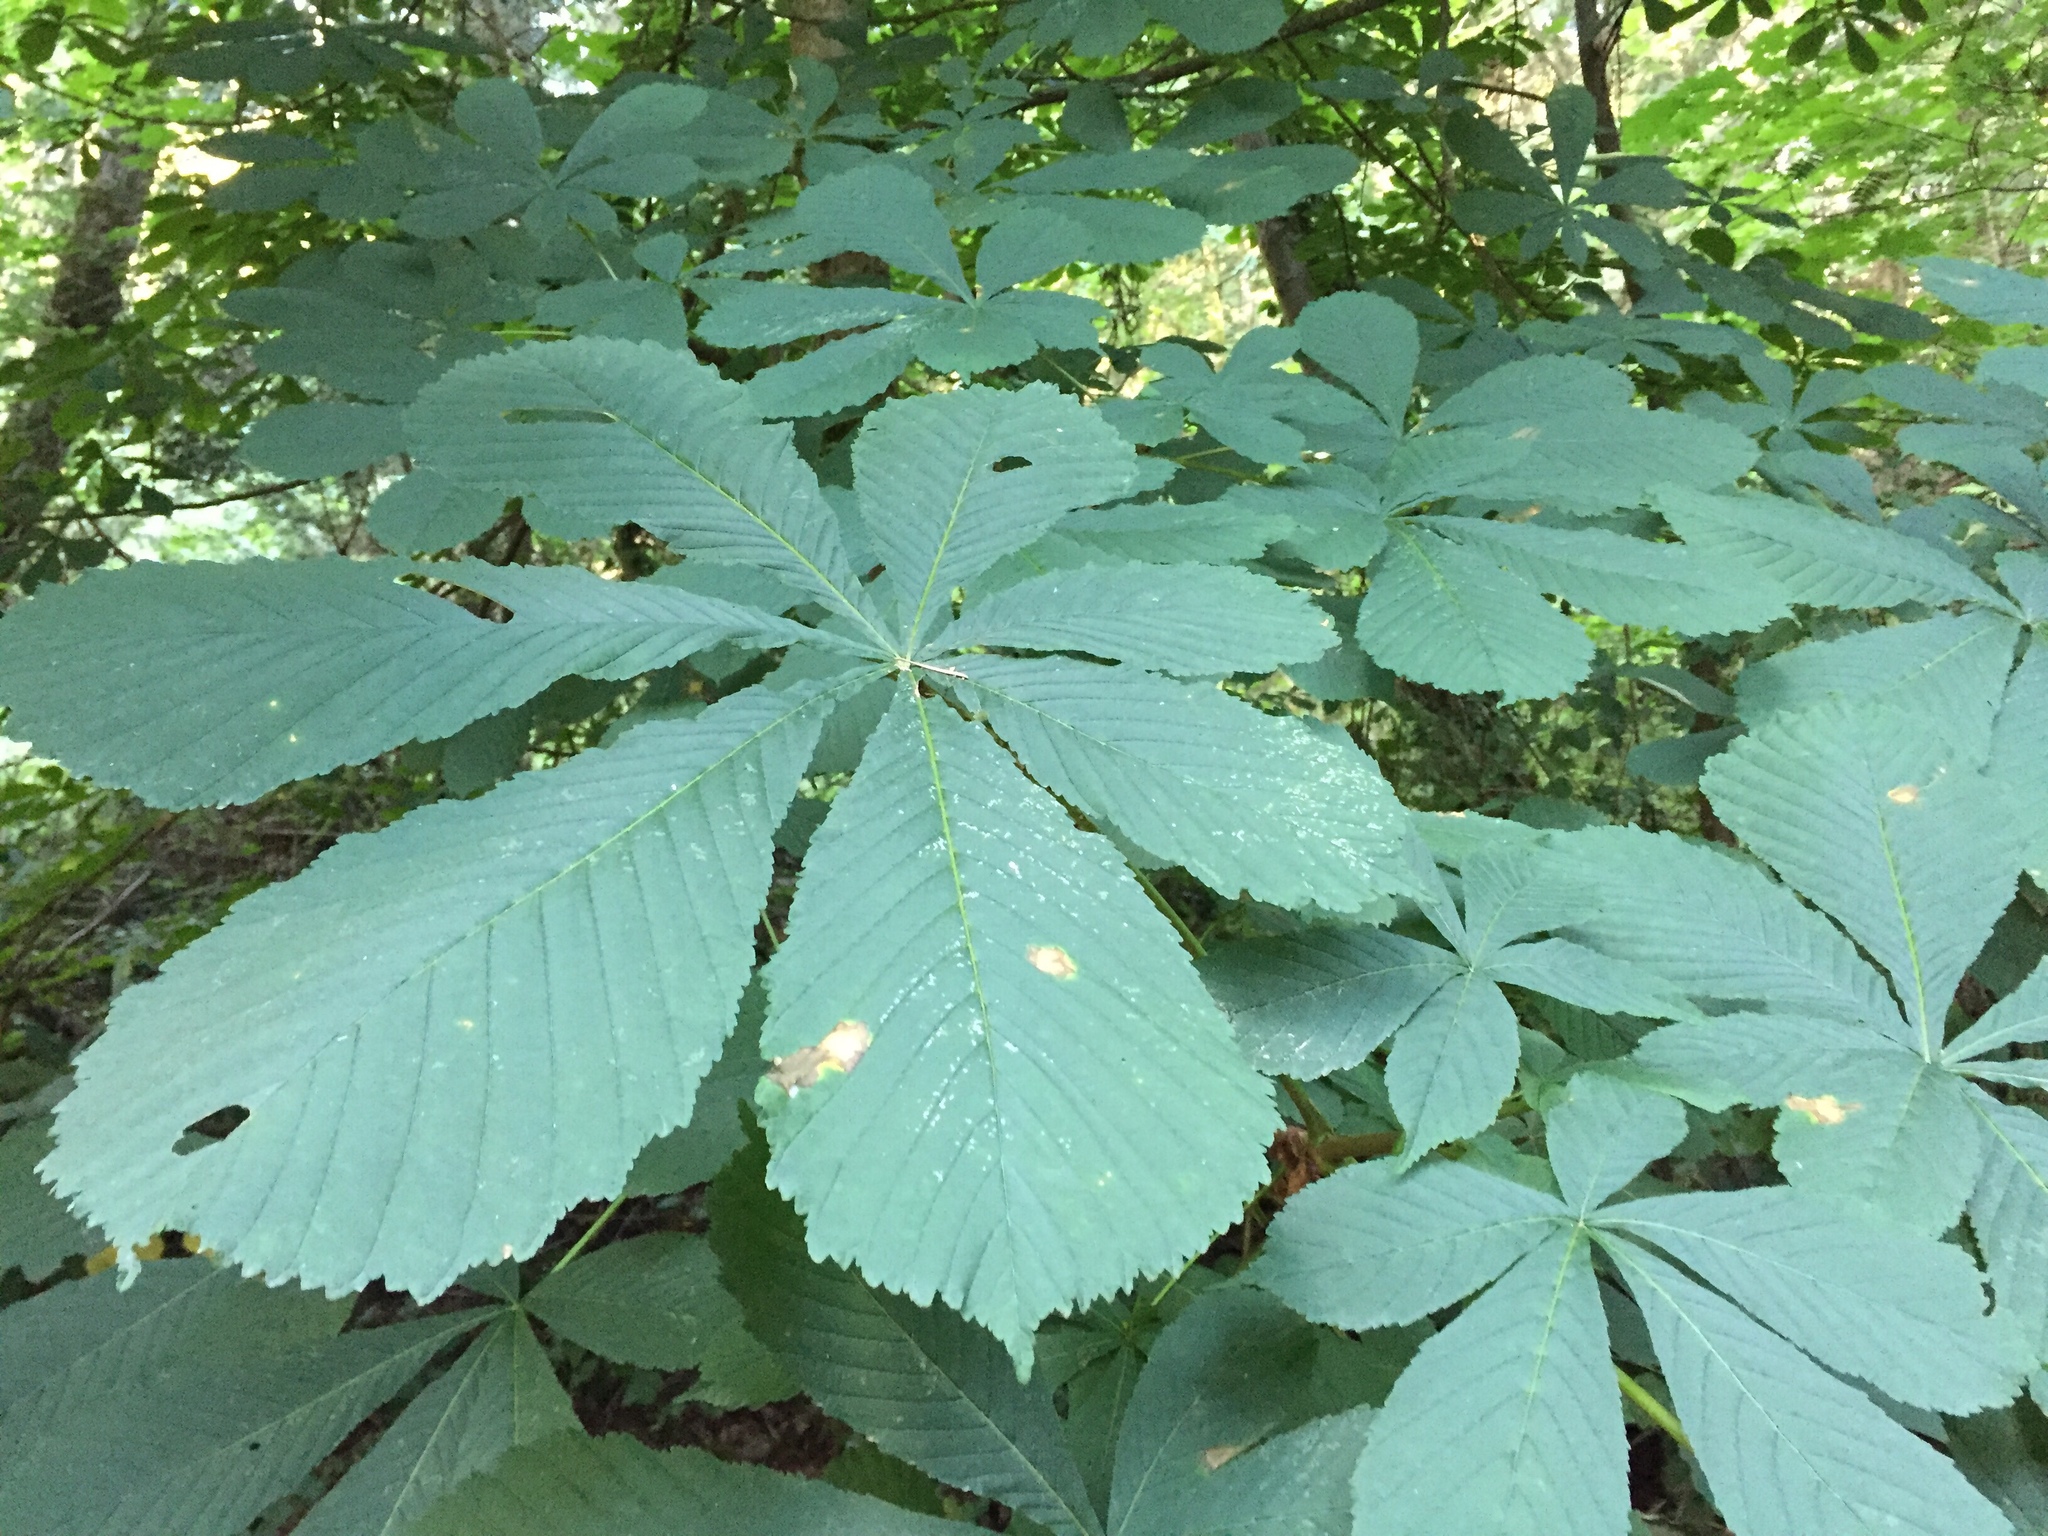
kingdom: Plantae
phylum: Tracheophyta
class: Magnoliopsida
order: Sapindales
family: Sapindaceae
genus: Aesculus
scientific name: Aesculus hippocastanum
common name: Horse-chestnut
